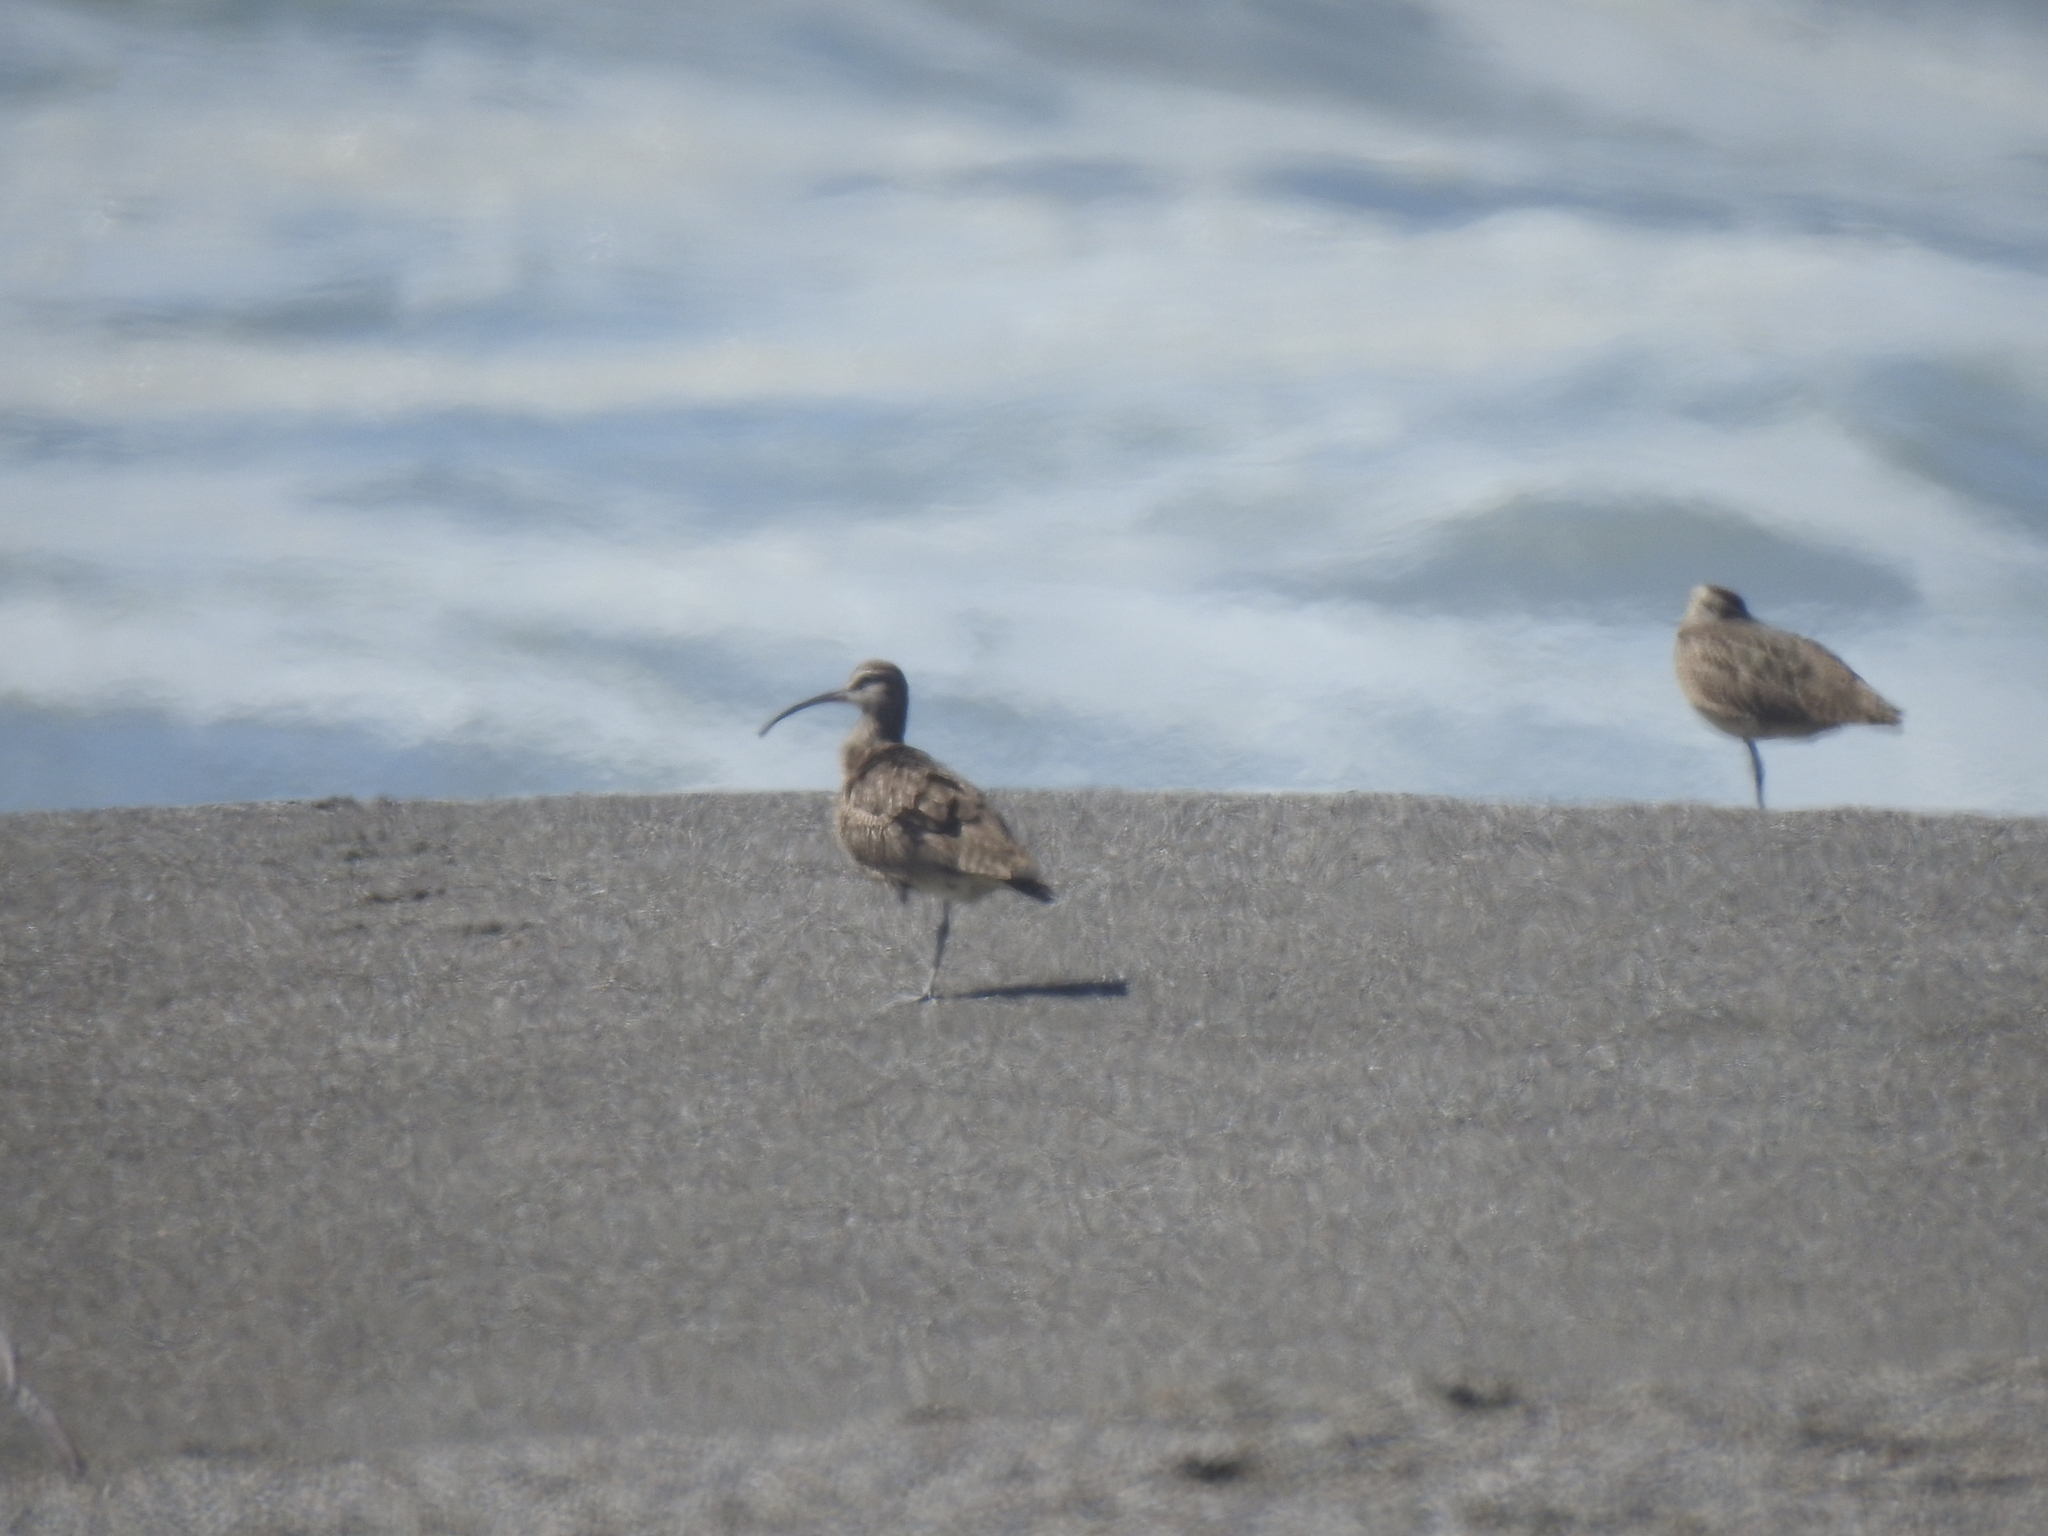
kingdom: Animalia
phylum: Chordata
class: Aves
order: Charadriiformes
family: Scolopacidae
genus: Numenius
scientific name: Numenius phaeopus
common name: Whimbrel
